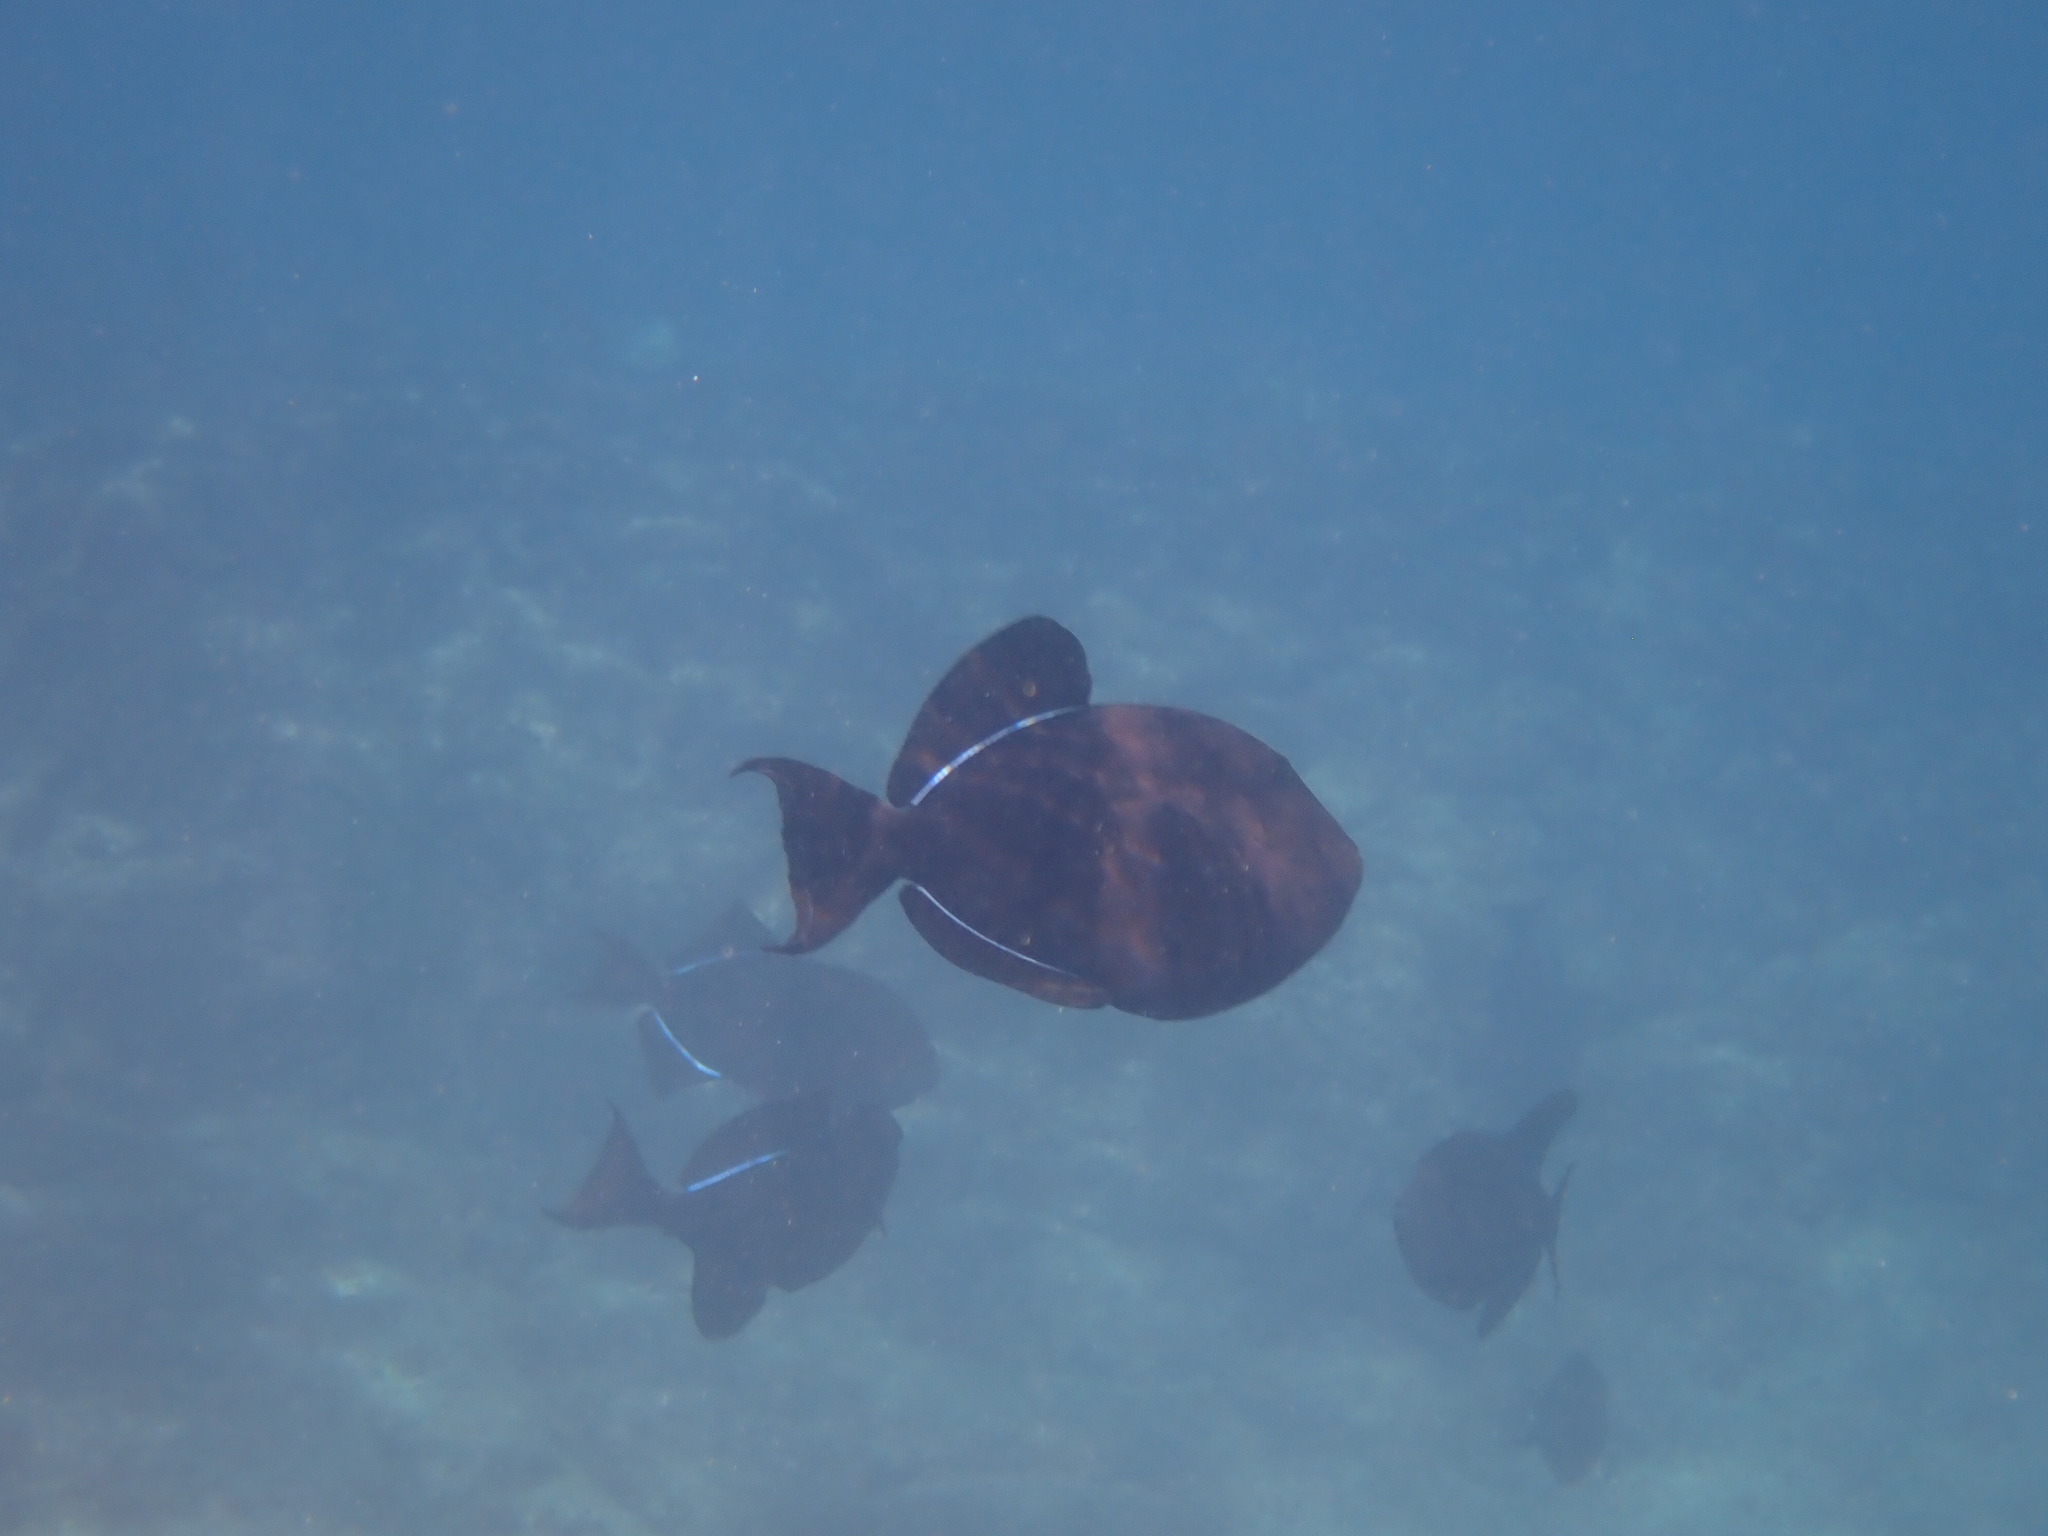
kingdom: Animalia
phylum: Chordata
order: Tetraodontiformes
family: Balistidae
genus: Melichthys
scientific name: Melichthys niger
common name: Black durgon
